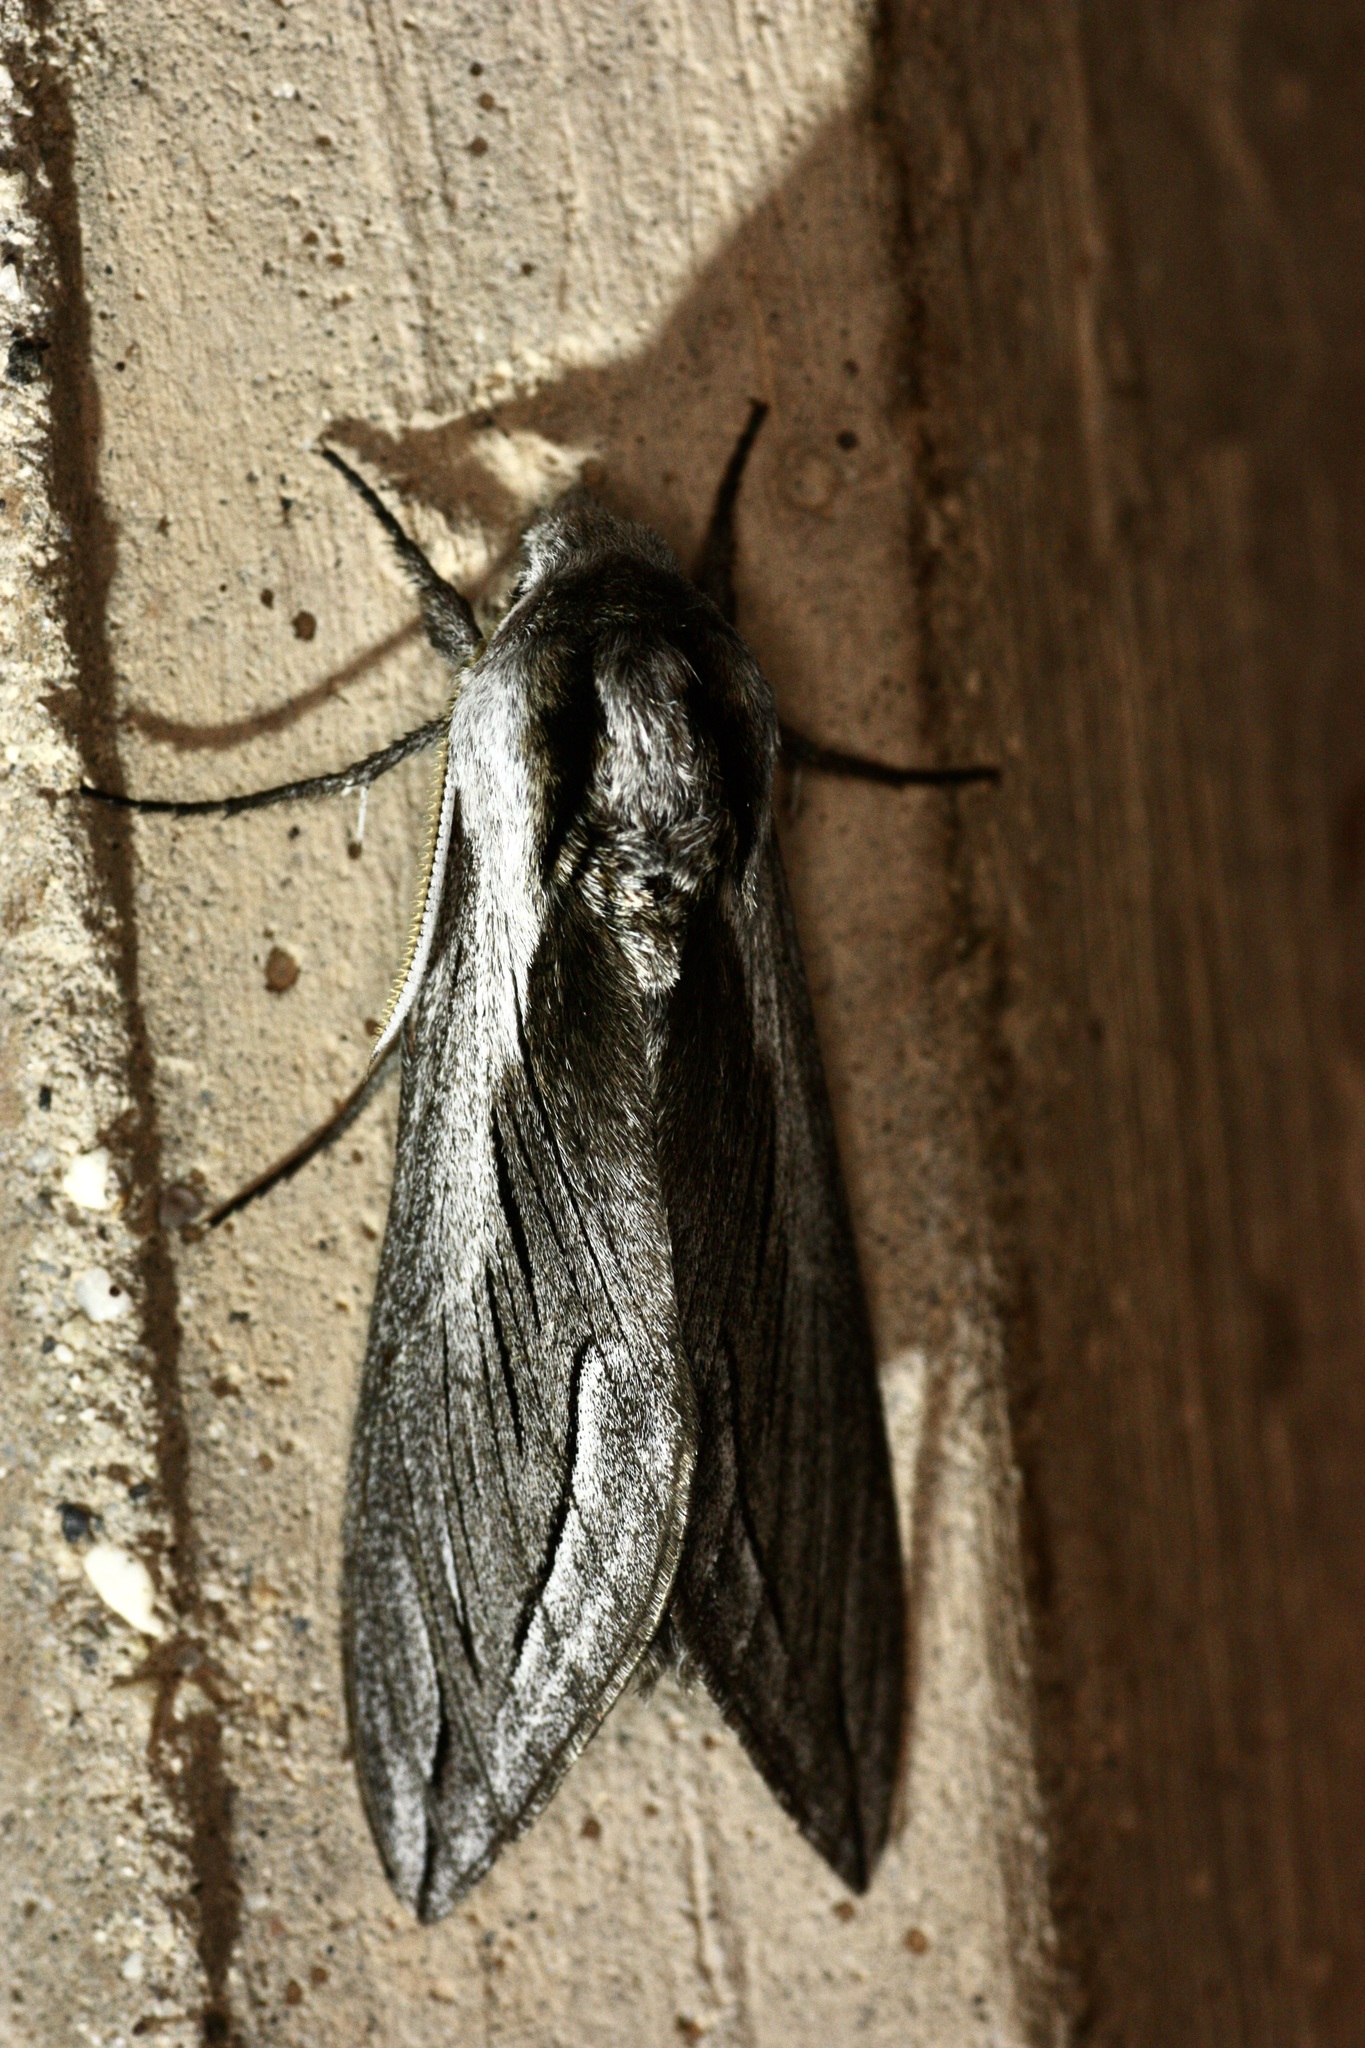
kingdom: Animalia
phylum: Arthropoda
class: Insecta
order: Lepidoptera
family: Sphingidae
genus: Sphinx
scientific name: Sphinx vashti
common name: Snowberry sphinx
